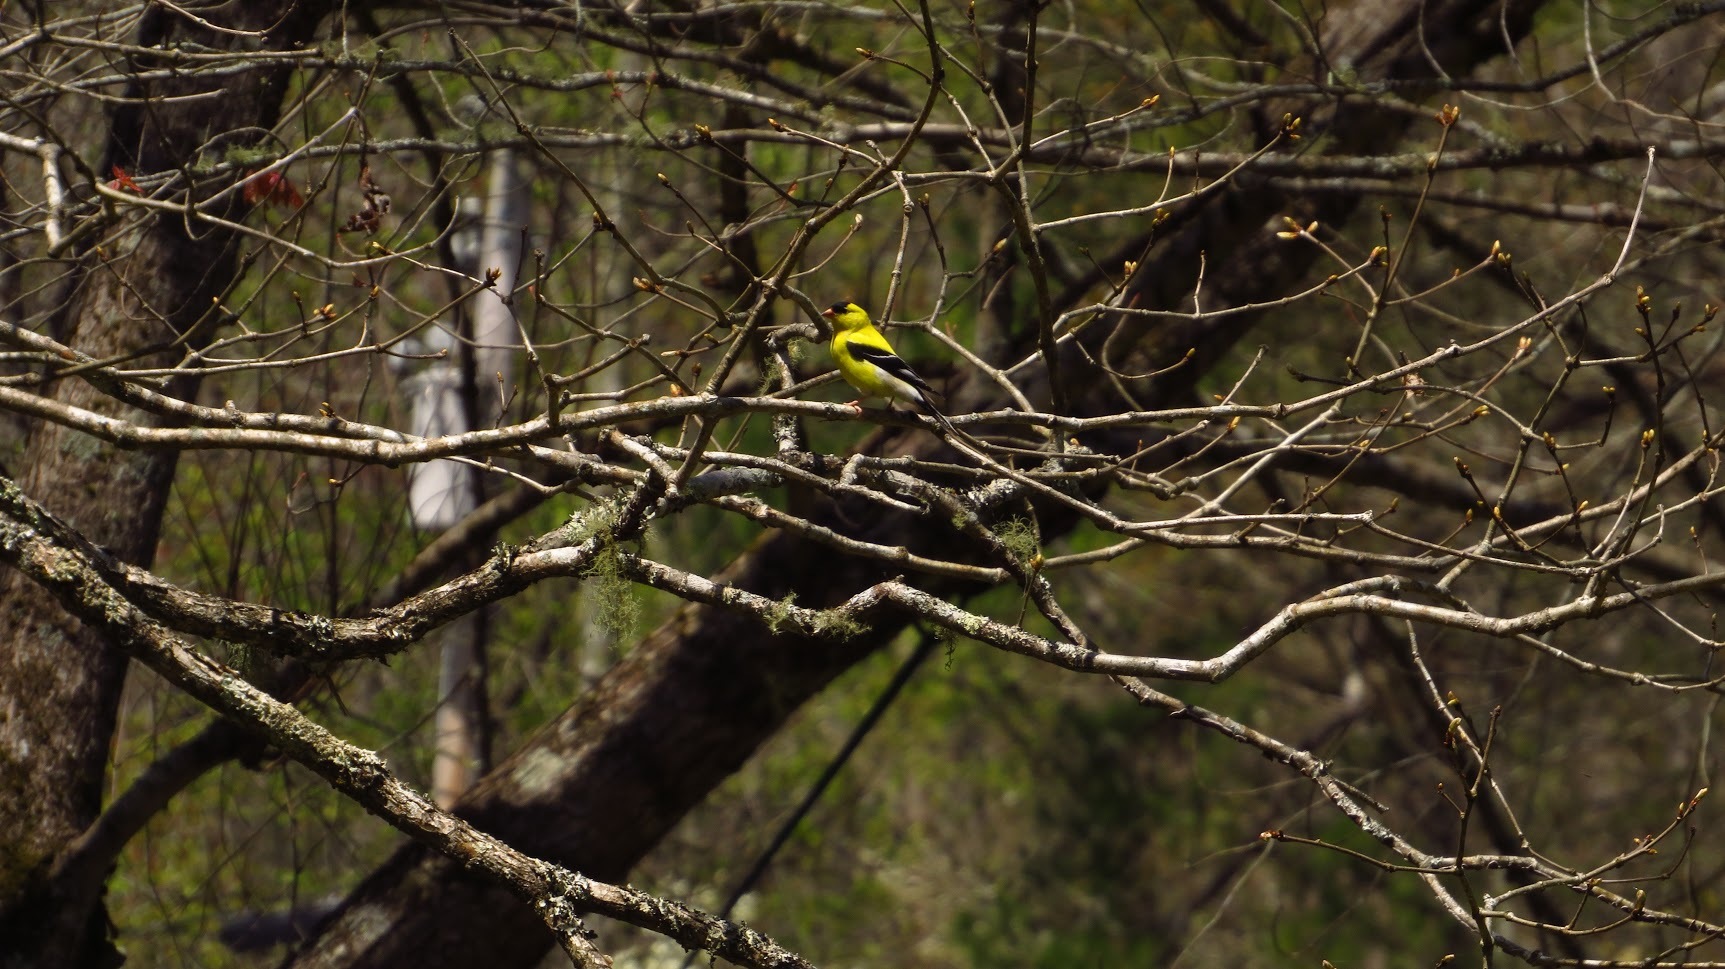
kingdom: Animalia
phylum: Chordata
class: Aves
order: Passeriformes
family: Fringillidae
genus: Spinus
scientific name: Spinus tristis
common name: American goldfinch
